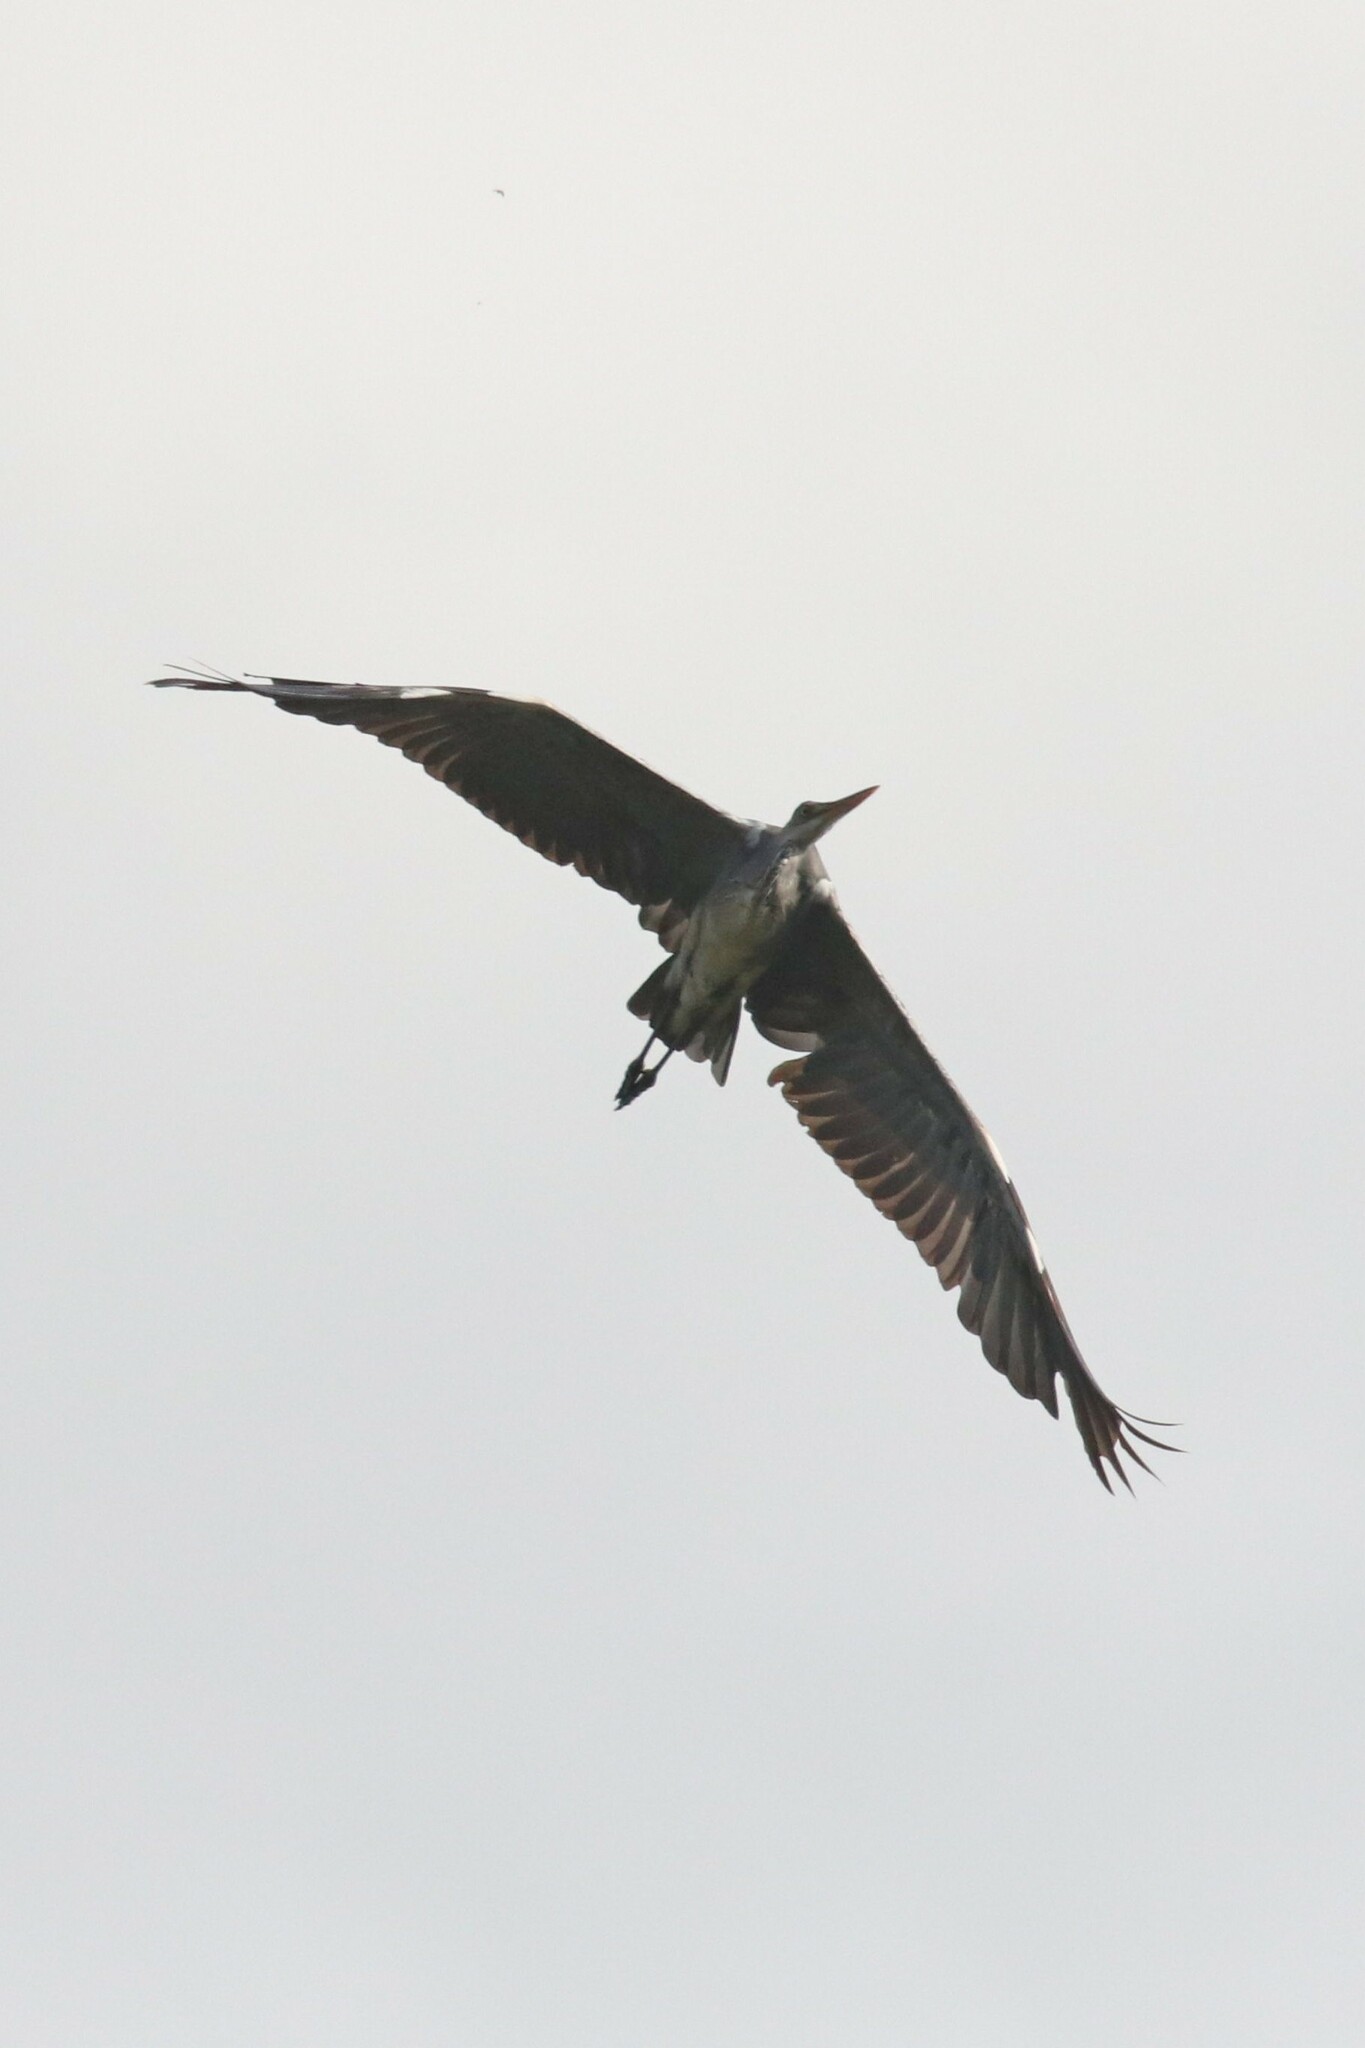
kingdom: Animalia
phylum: Chordata
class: Aves
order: Pelecaniformes
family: Ardeidae
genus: Ardea
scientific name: Ardea cinerea
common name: Grey heron
